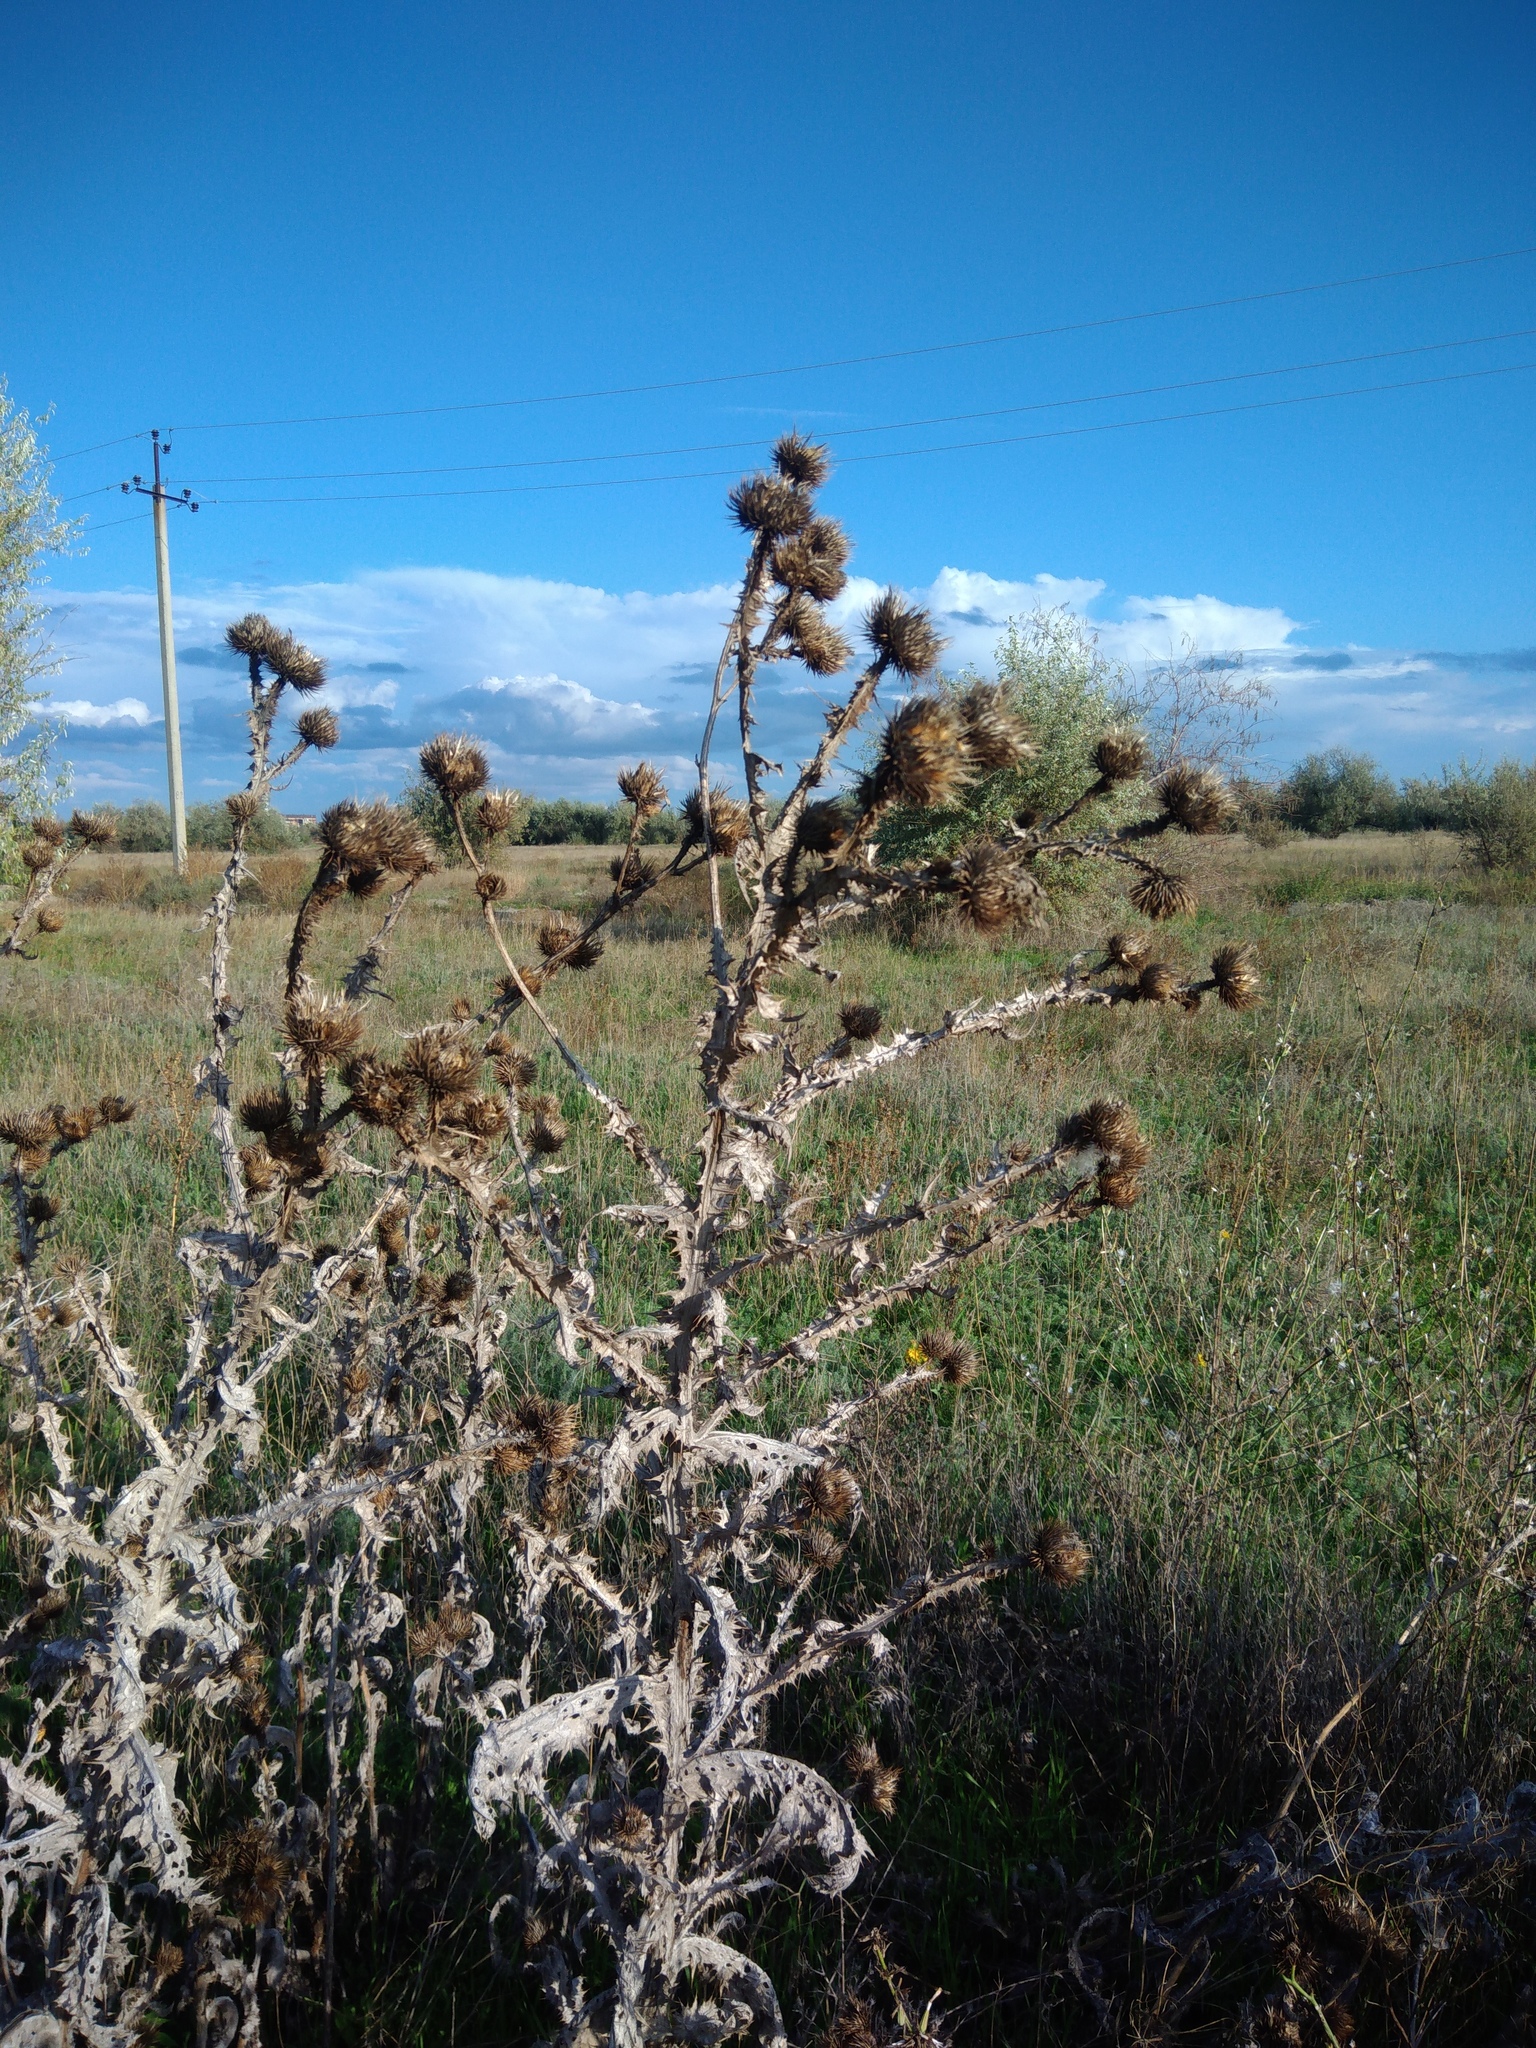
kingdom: Plantae
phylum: Tracheophyta
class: Magnoliopsida
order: Asterales
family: Asteraceae
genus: Onopordum
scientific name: Onopordum acanthium
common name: Scotch thistle
